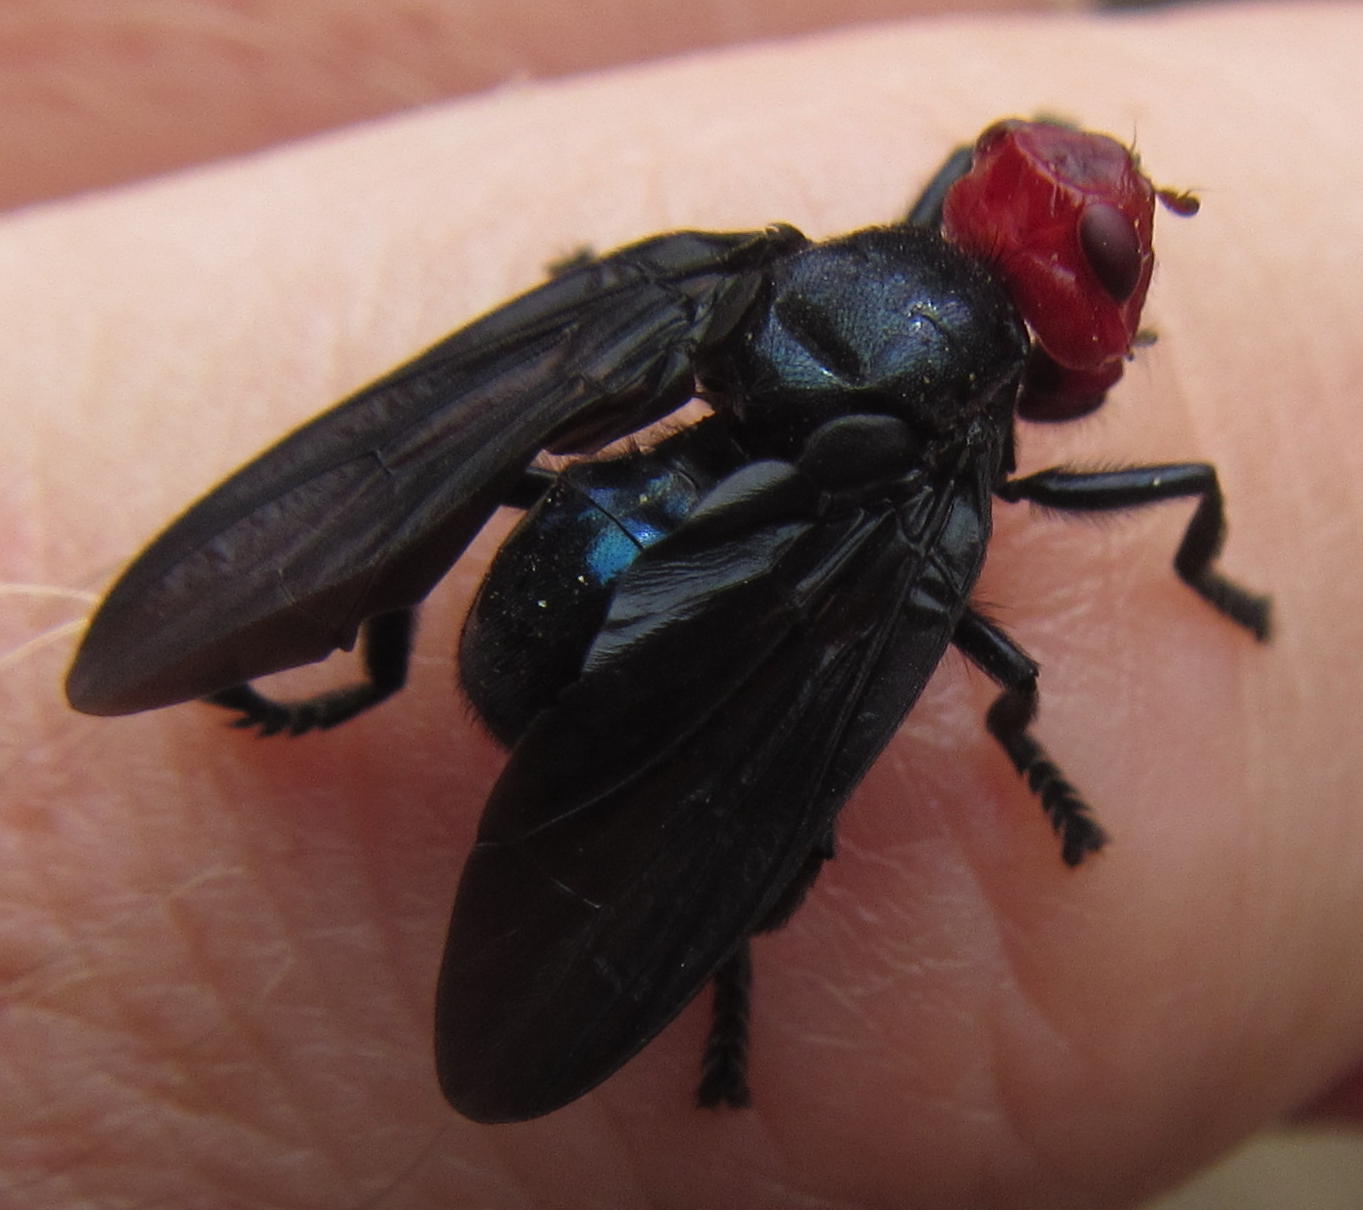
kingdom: Animalia
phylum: Arthropoda
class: Insecta
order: Diptera
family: Platystomatidae
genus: Bromophila
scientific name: Bromophila caffra
